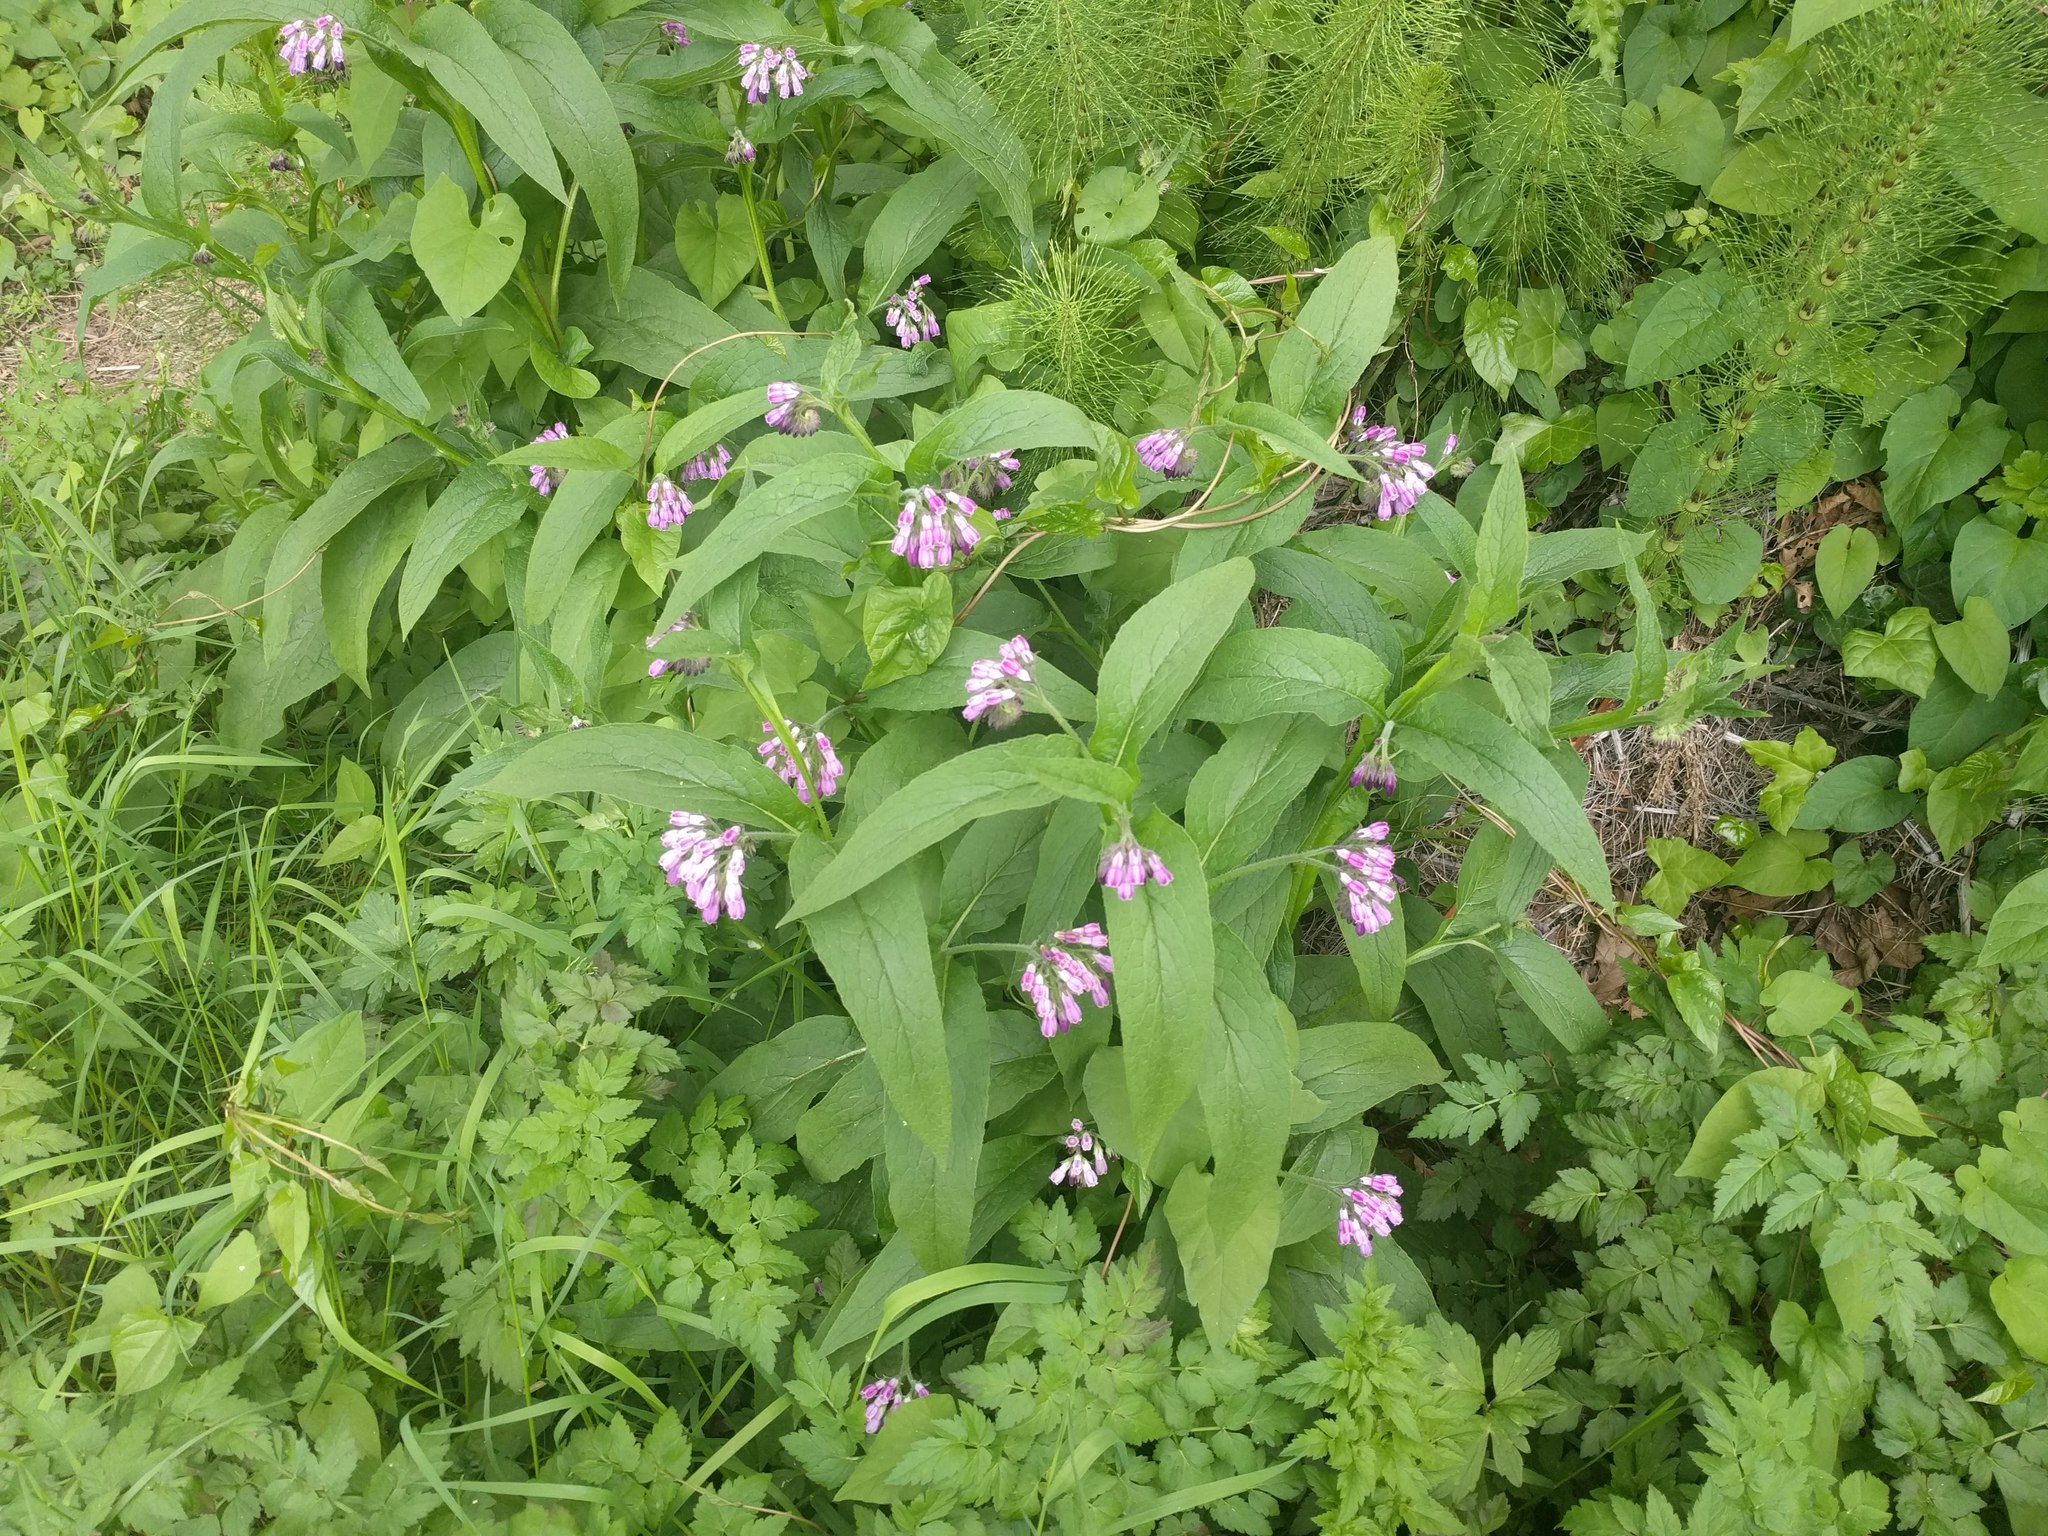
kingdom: Plantae
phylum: Tracheophyta
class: Magnoliopsida
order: Boraginales
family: Boraginaceae
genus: Symphytum
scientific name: Symphytum officinale
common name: Common comfrey
